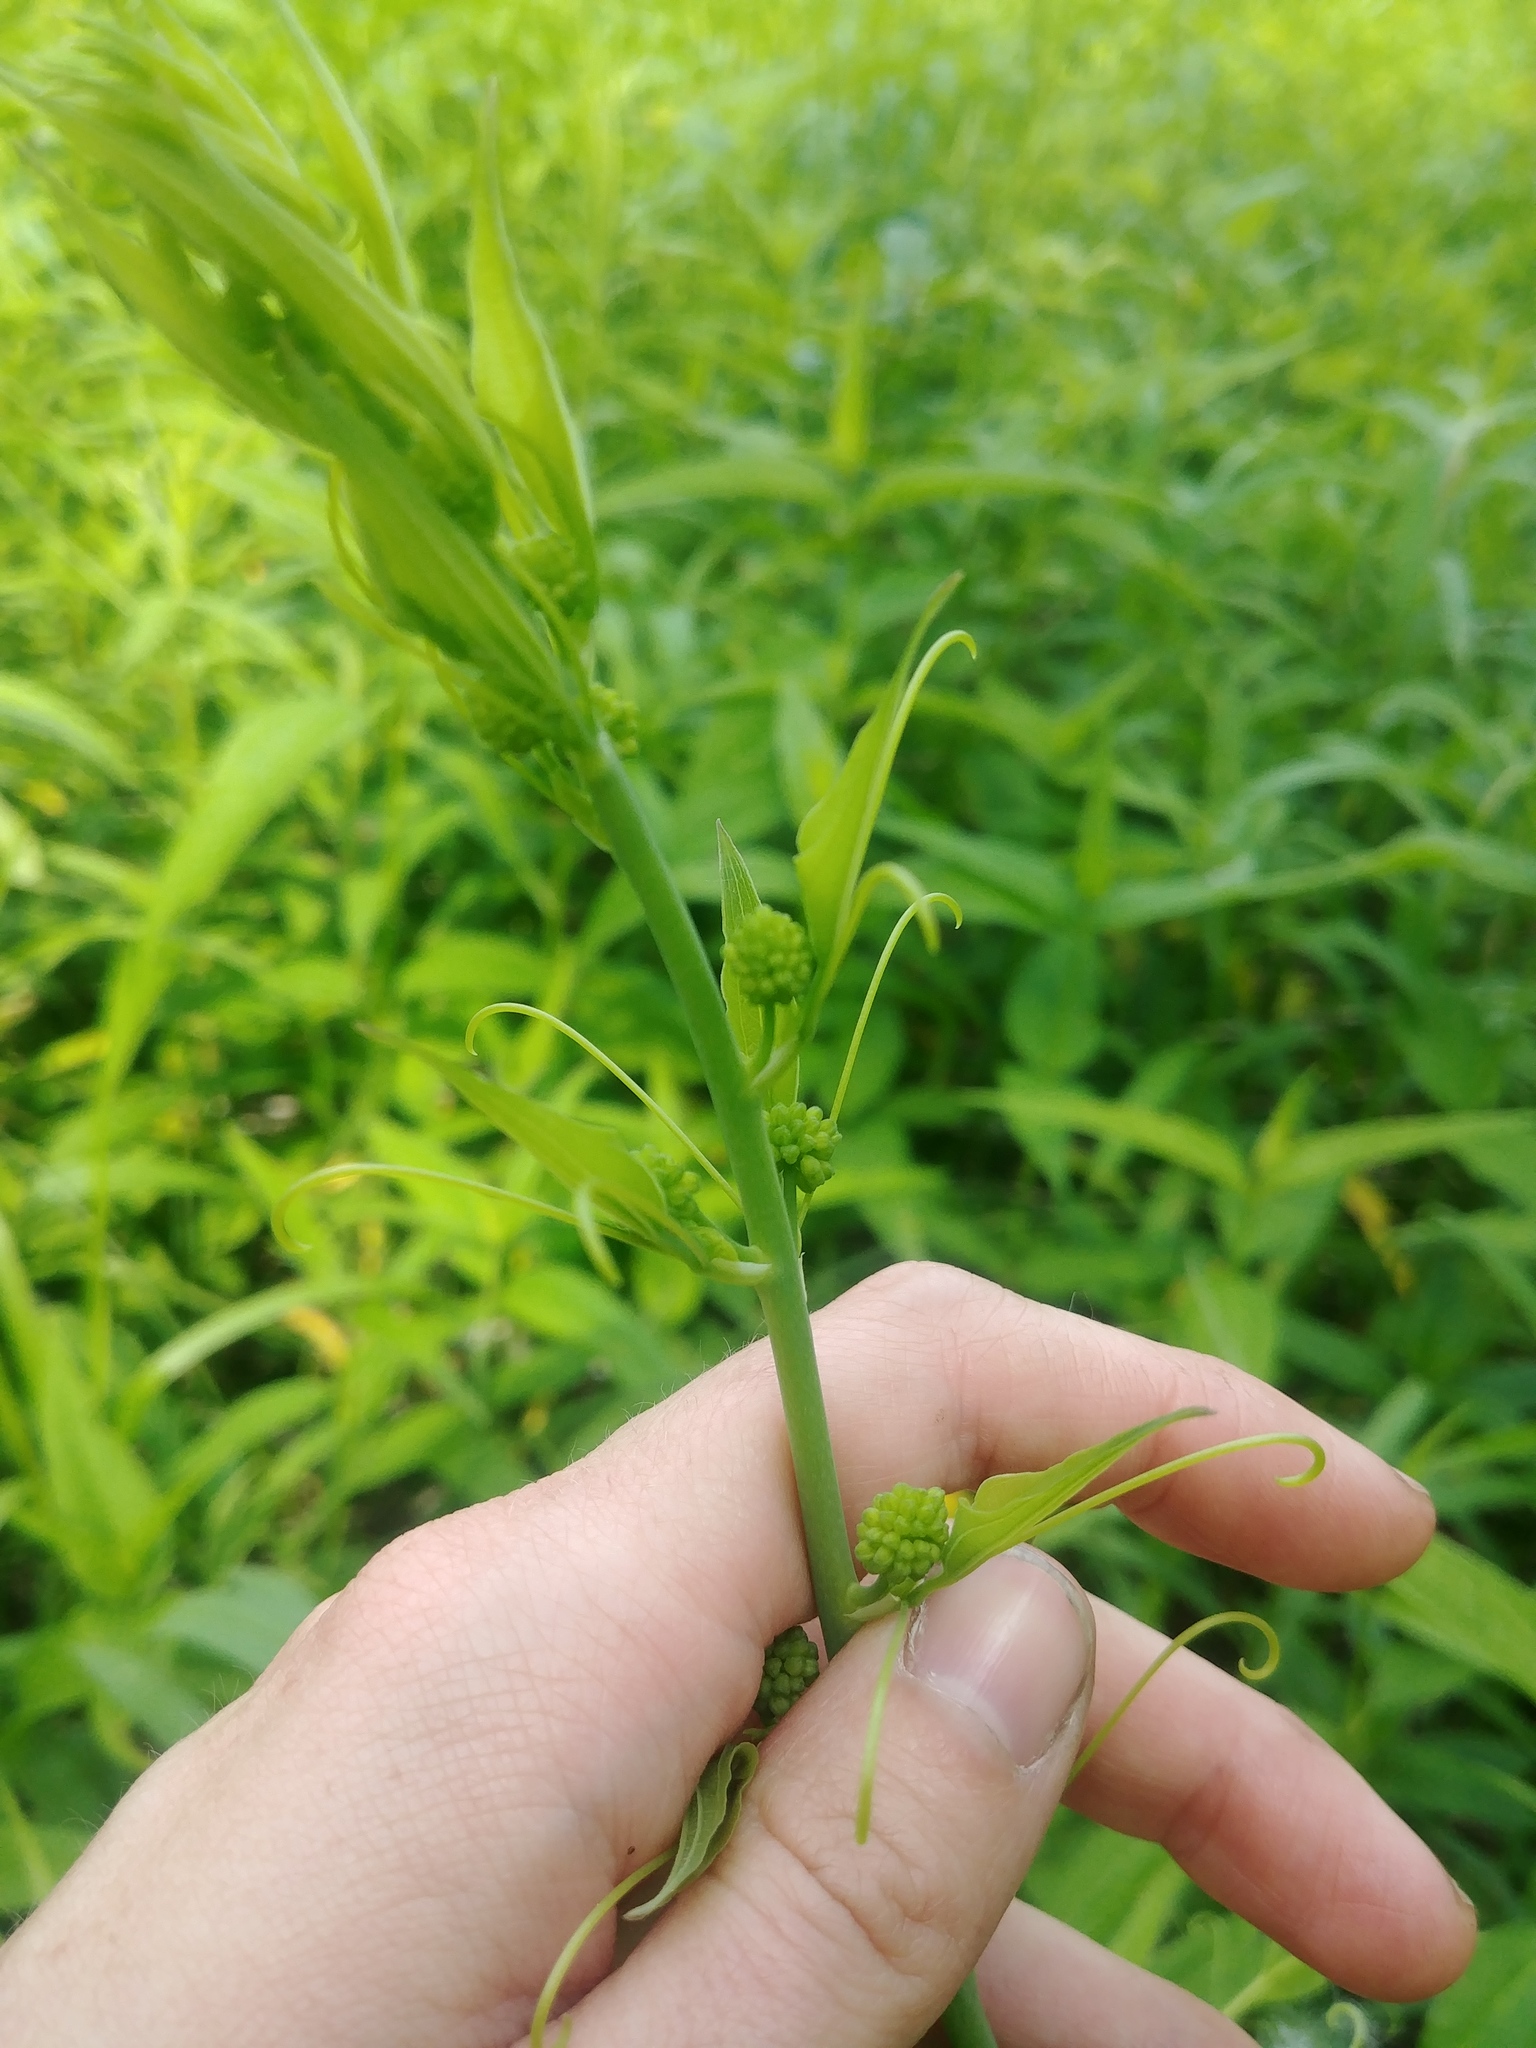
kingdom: Plantae
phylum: Tracheophyta
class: Liliopsida
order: Liliales
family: Smilacaceae
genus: Smilax
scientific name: Smilax lasioneura
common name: Blue ridge carrionflower
